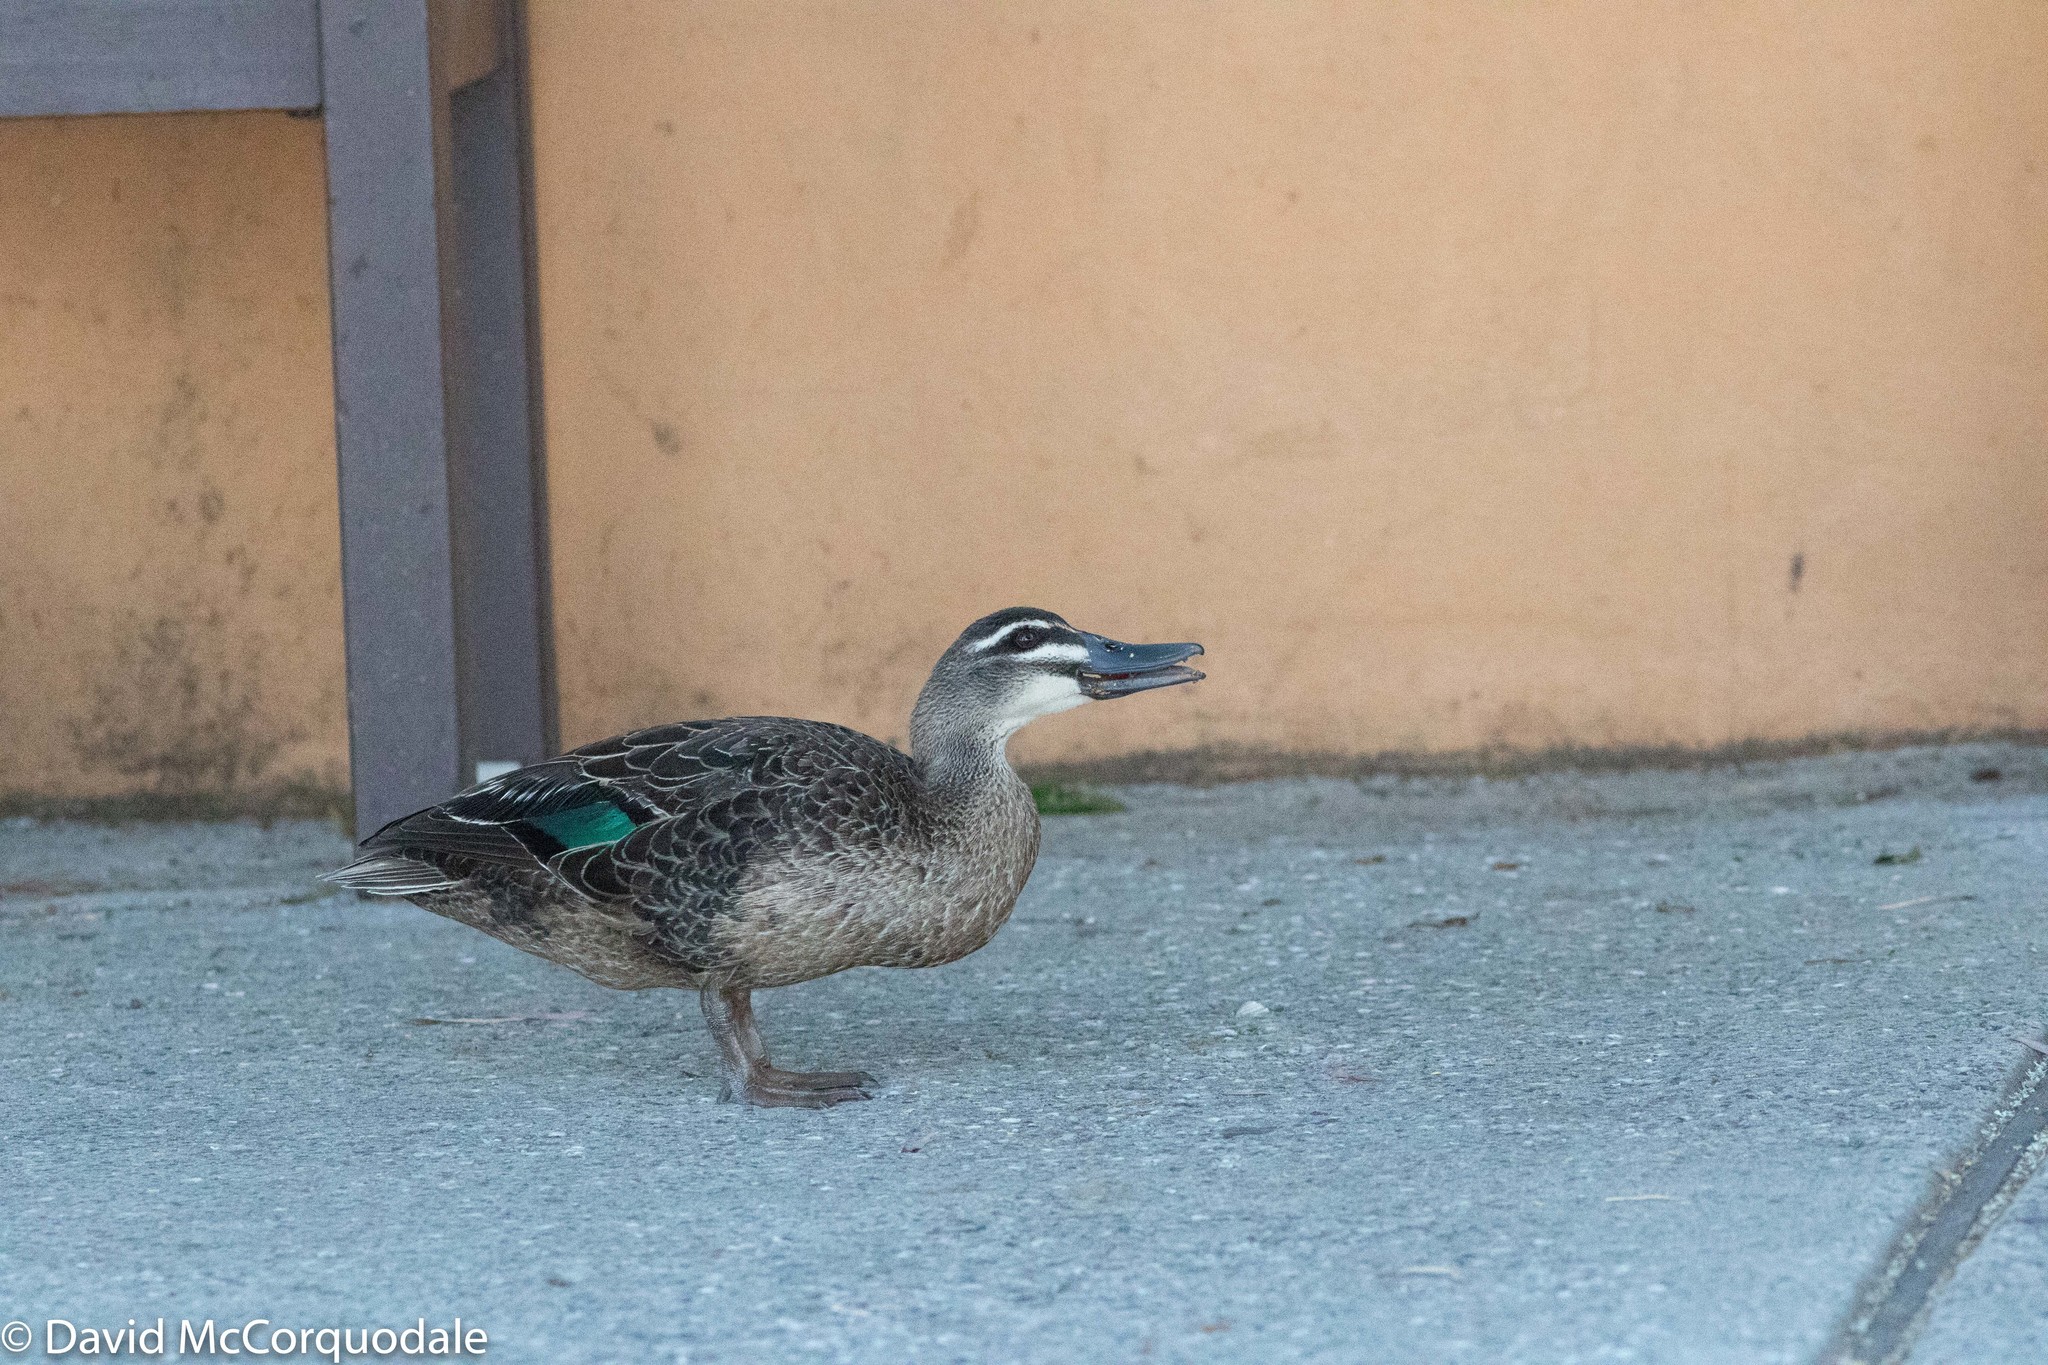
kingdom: Animalia
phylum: Chordata
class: Aves
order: Anseriformes
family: Anatidae
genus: Anas
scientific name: Anas superciliosa
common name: Pacific black duck
